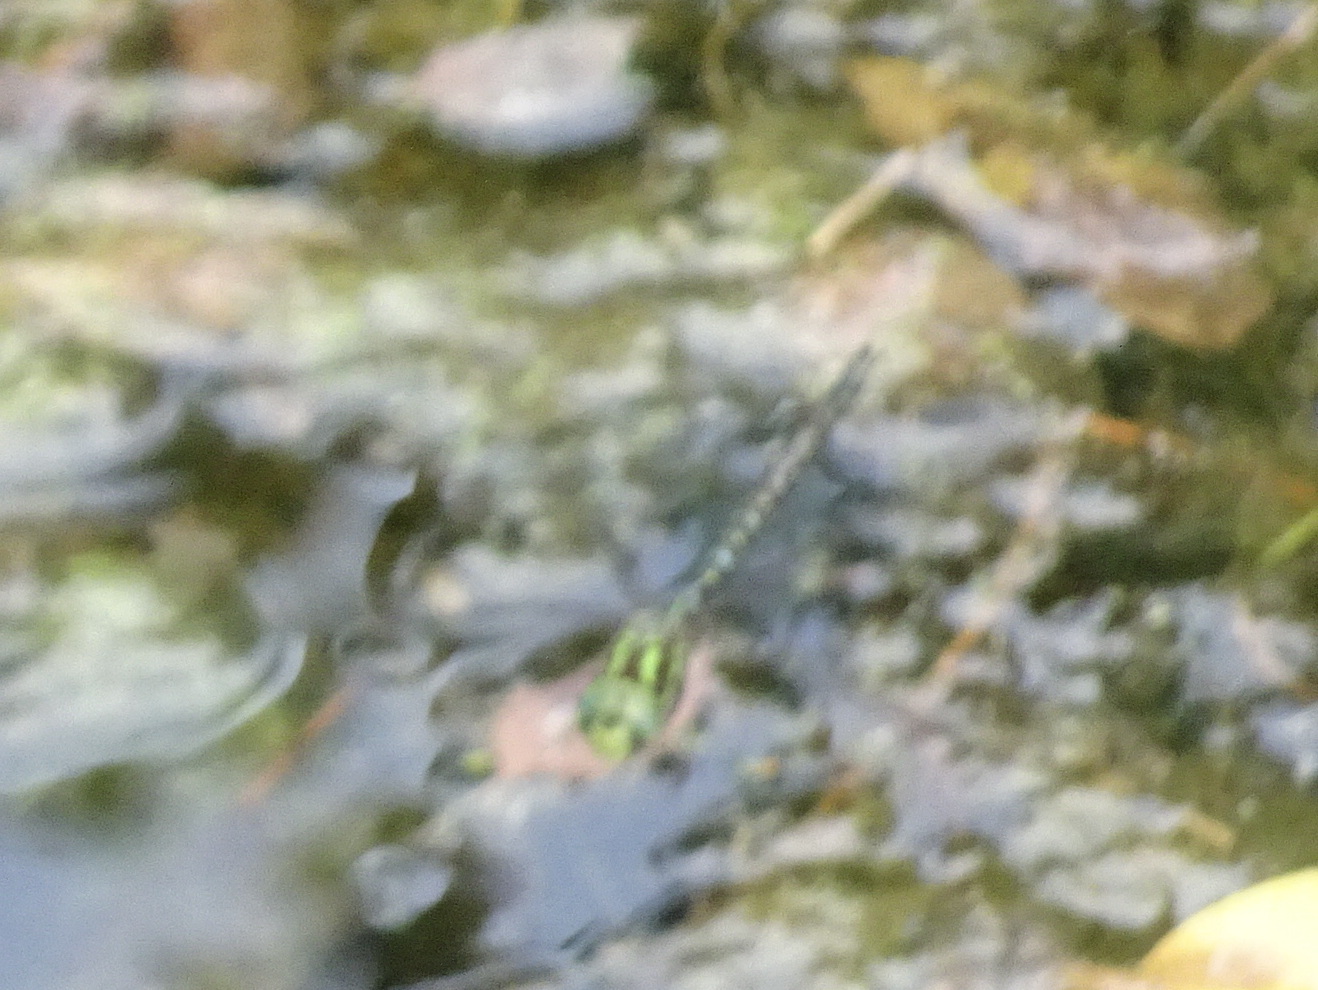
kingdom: Animalia
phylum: Arthropoda
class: Insecta
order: Odonata
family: Aeshnidae
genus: Aeshna
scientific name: Aeshna umbrosa
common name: Shadow darner
